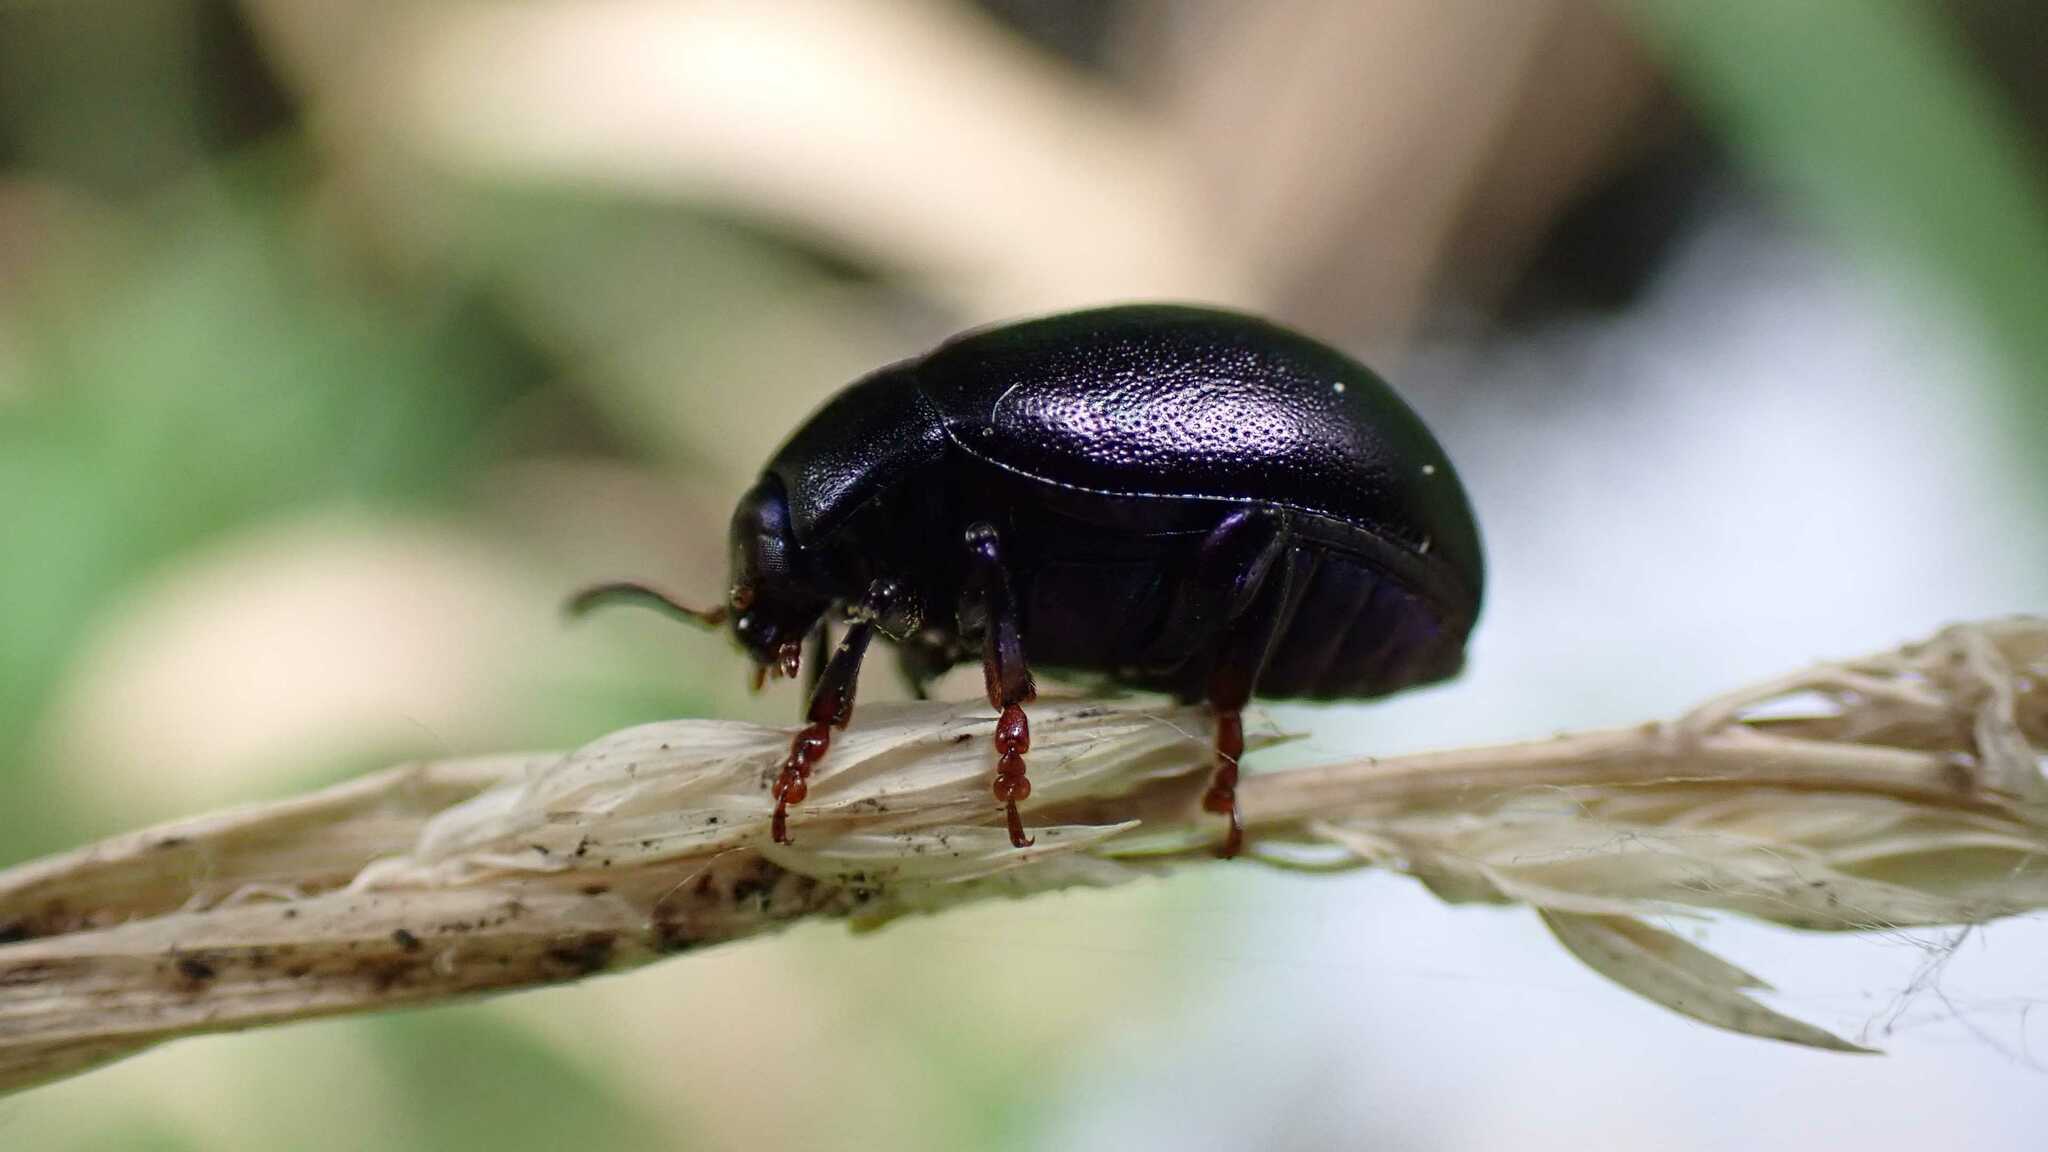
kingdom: Animalia
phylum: Arthropoda
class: Insecta
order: Coleoptera
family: Chrysomelidae
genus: Chrysolina
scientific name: Chrysolina sturmi
